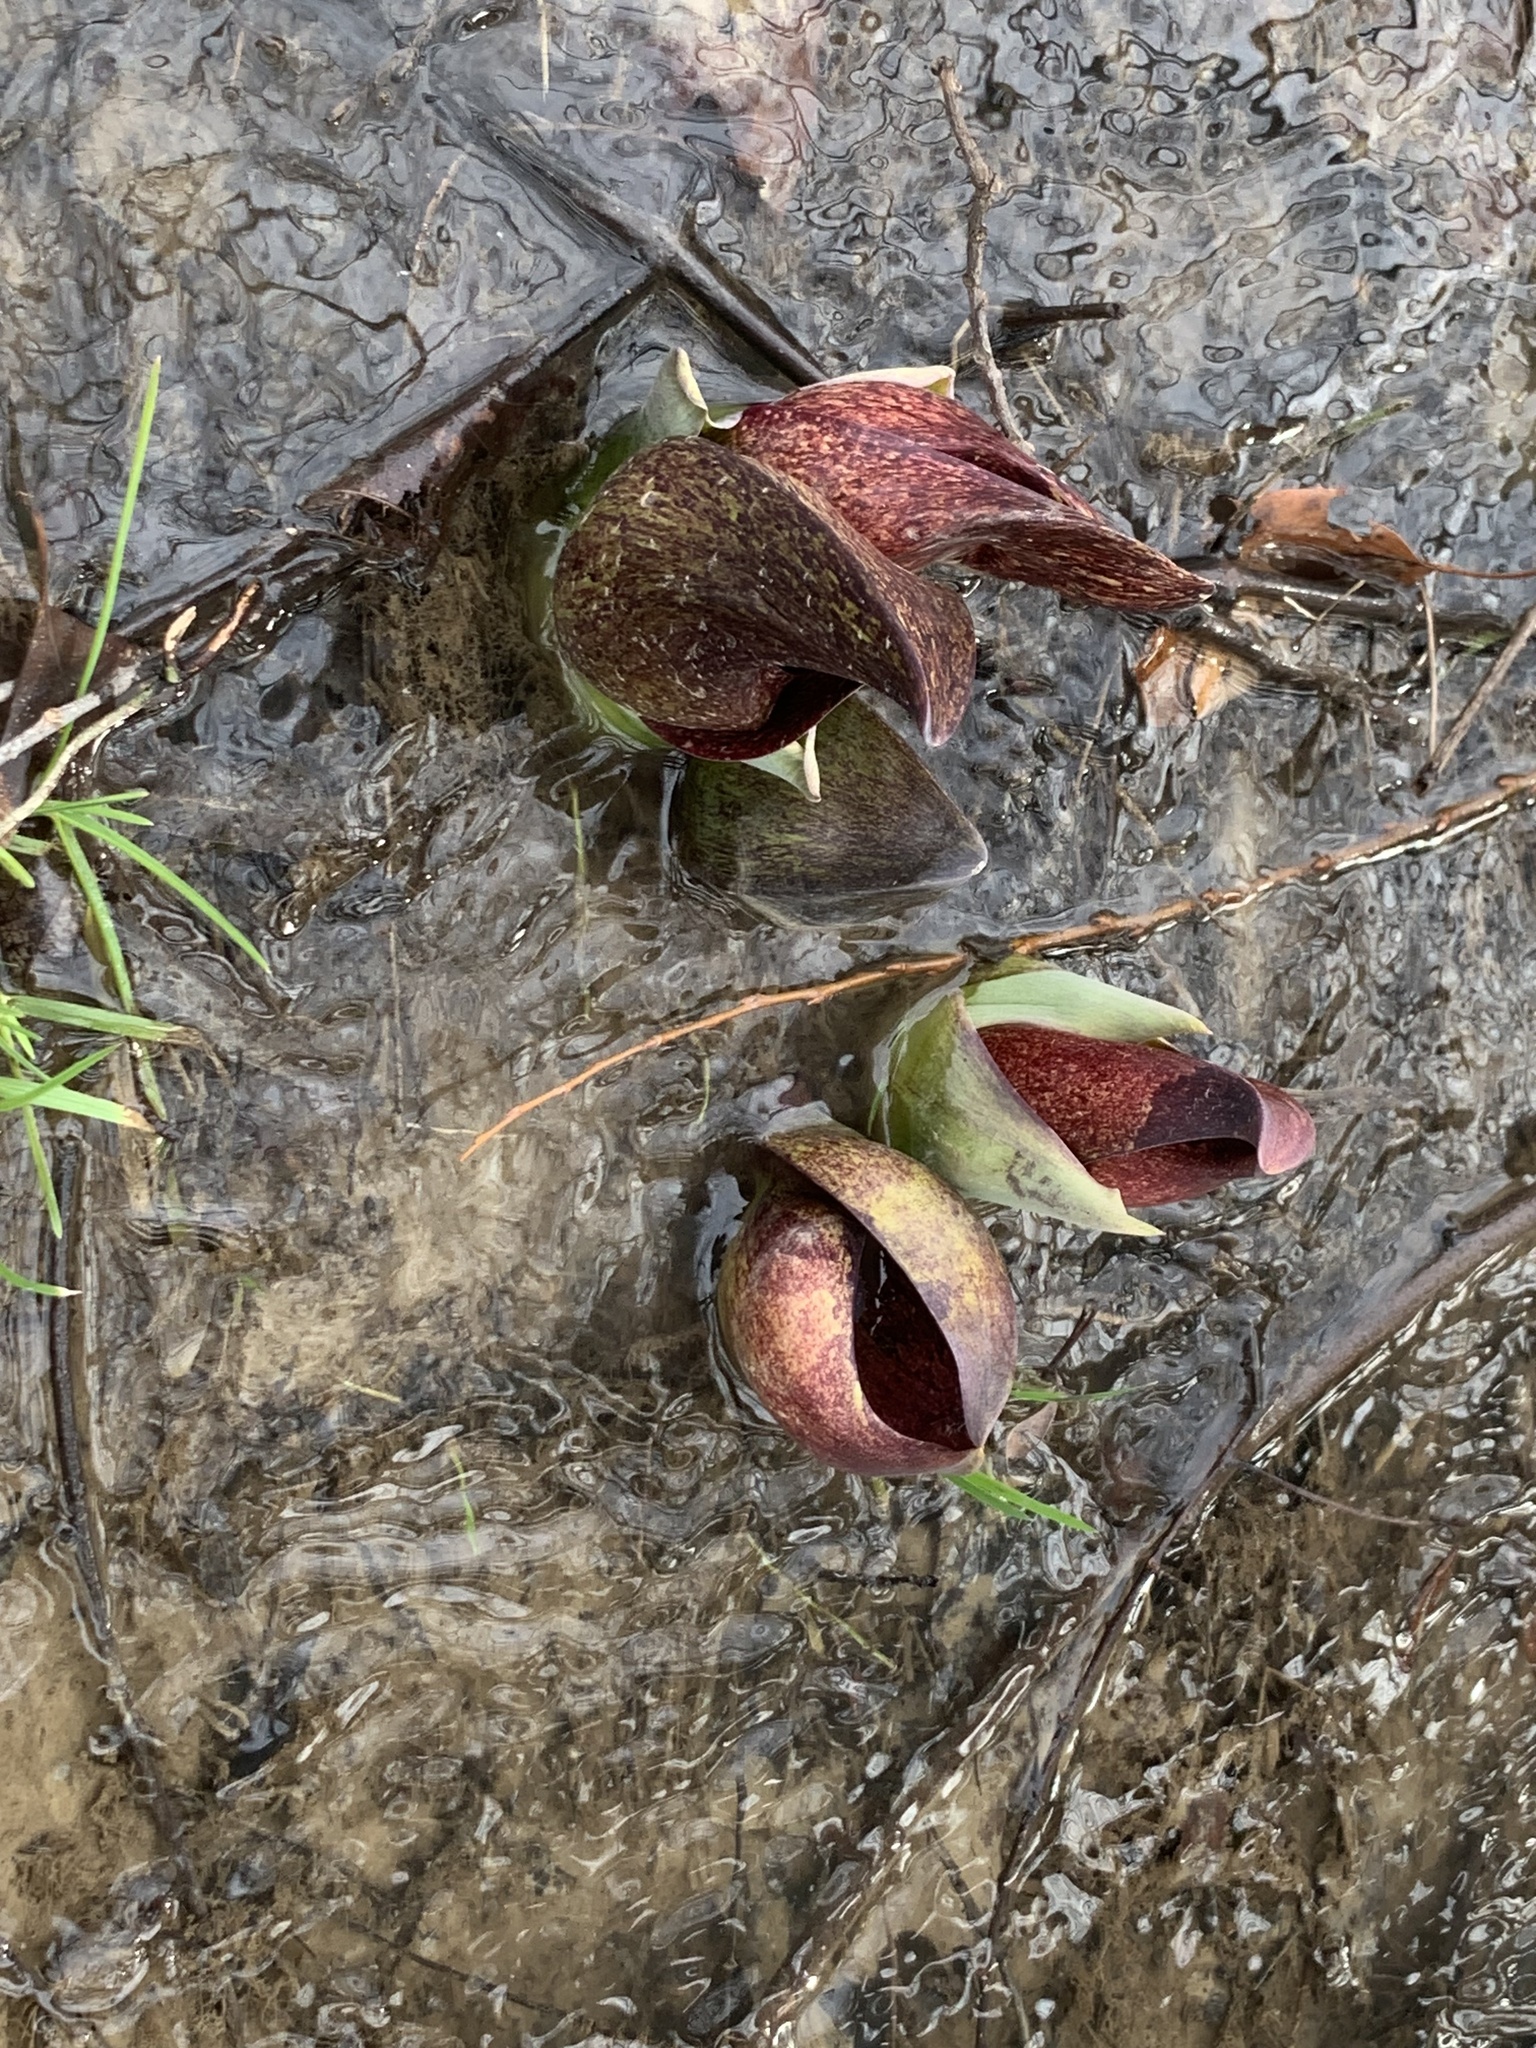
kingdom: Plantae
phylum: Tracheophyta
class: Liliopsida
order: Alismatales
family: Araceae
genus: Symplocarpus
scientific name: Symplocarpus foetidus
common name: Eastern skunk cabbage
